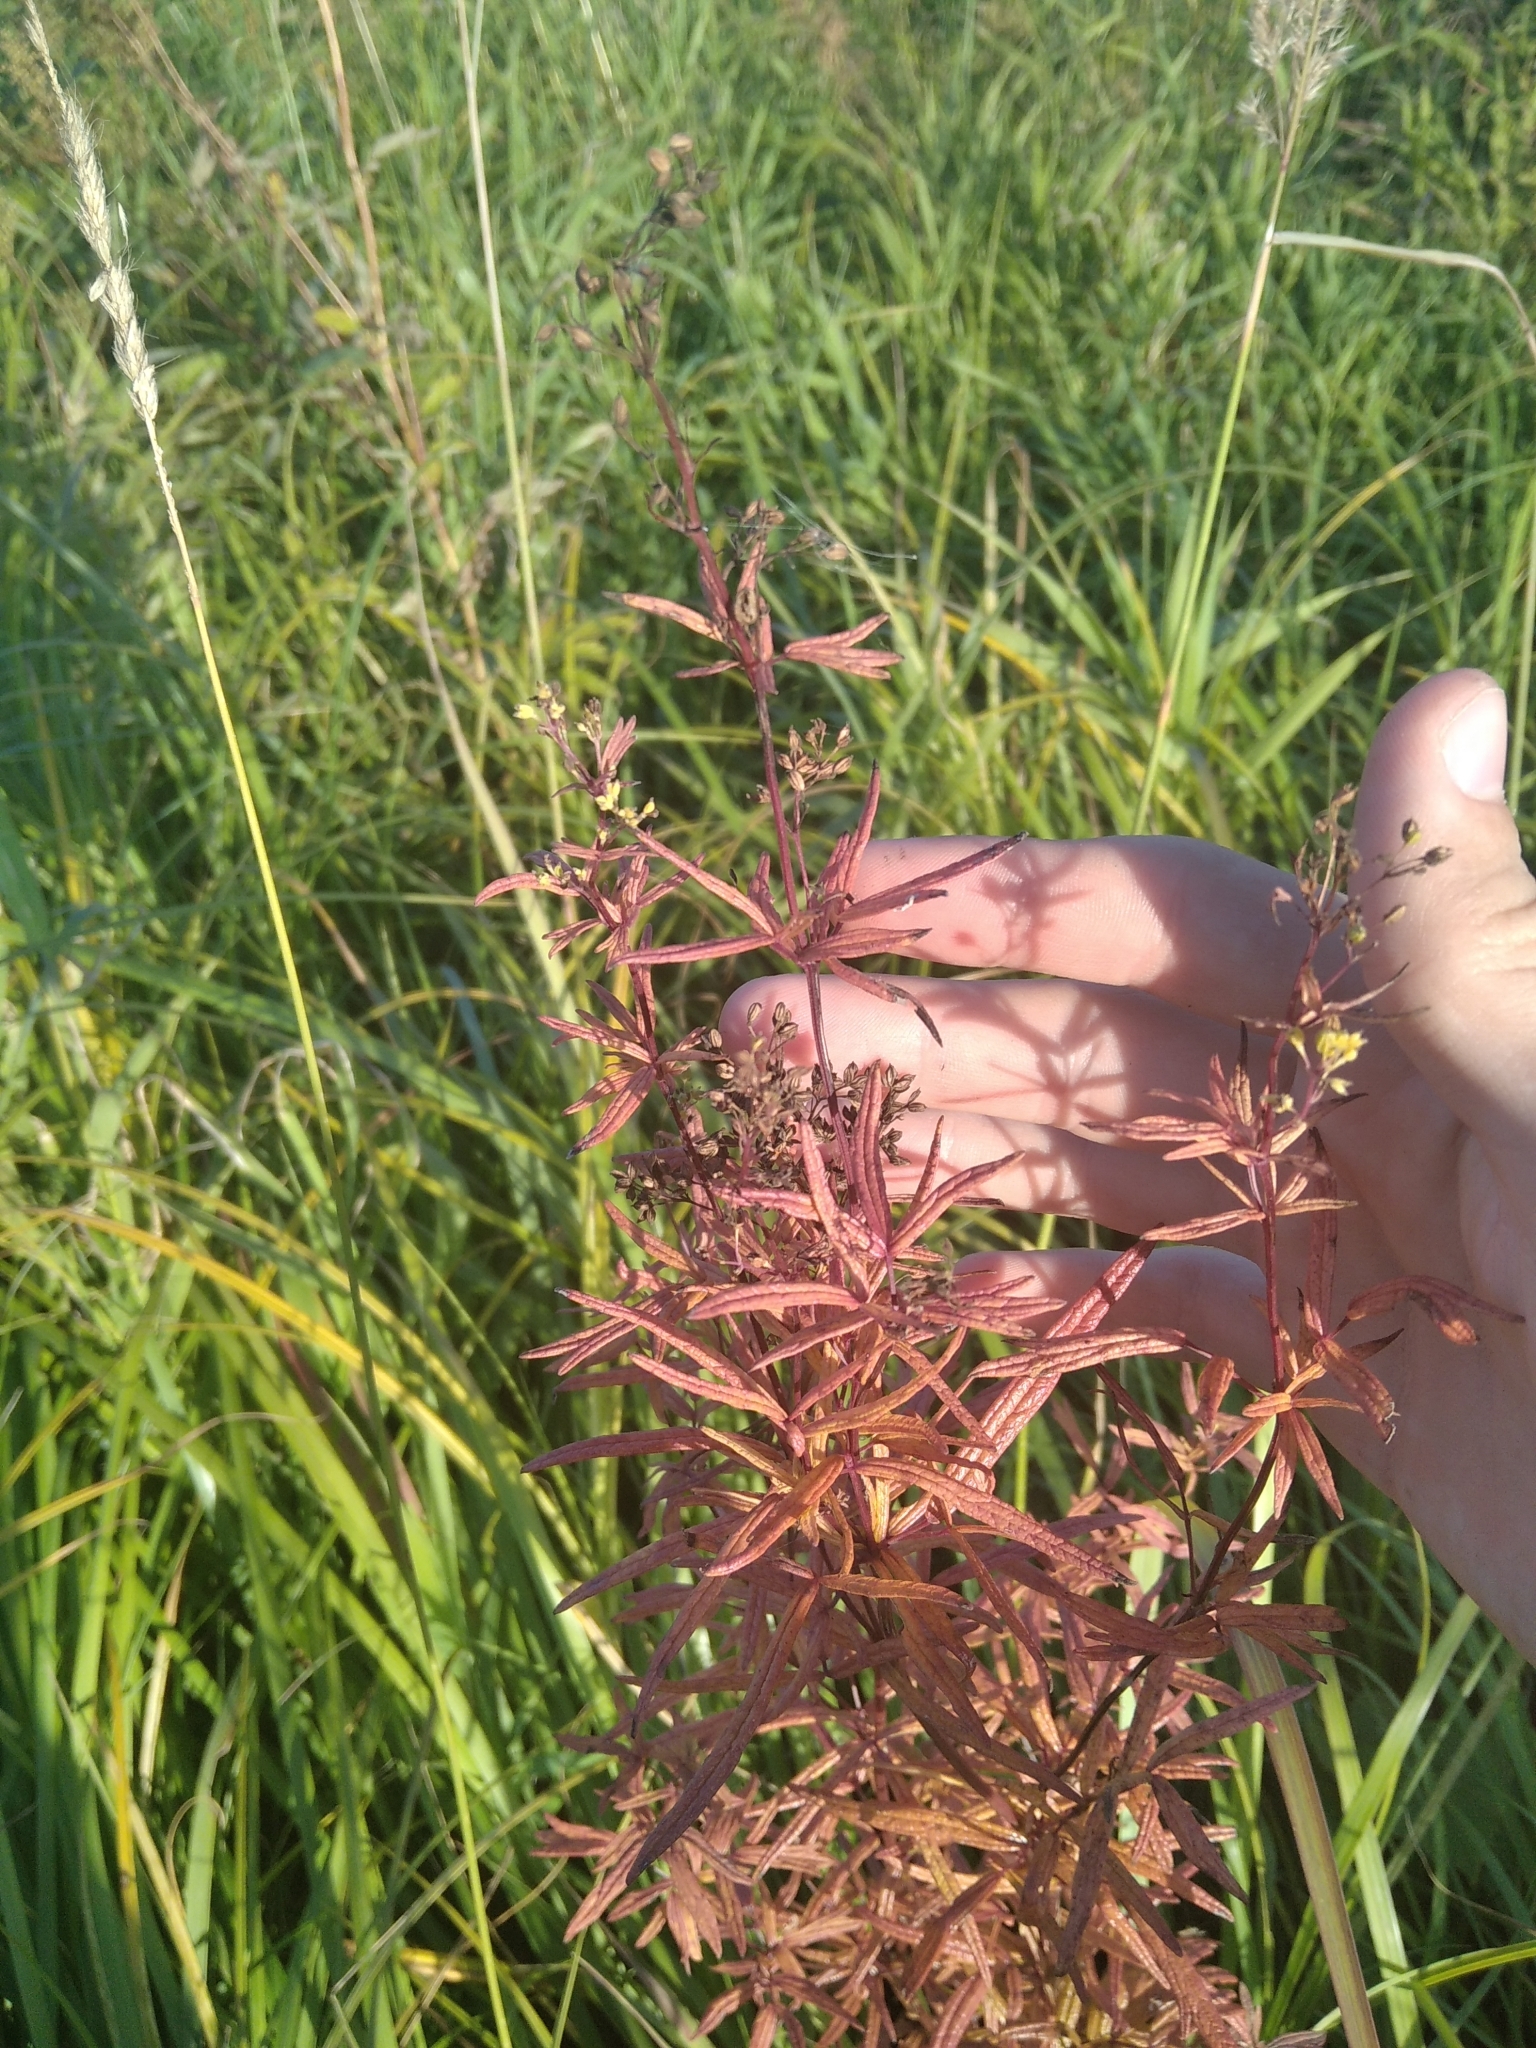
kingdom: Plantae
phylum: Tracheophyta
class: Magnoliopsida
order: Ranunculales
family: Ranunculaceae
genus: Thalictrum
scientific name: Thalictrum lucidum
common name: Shining meadow-rue
